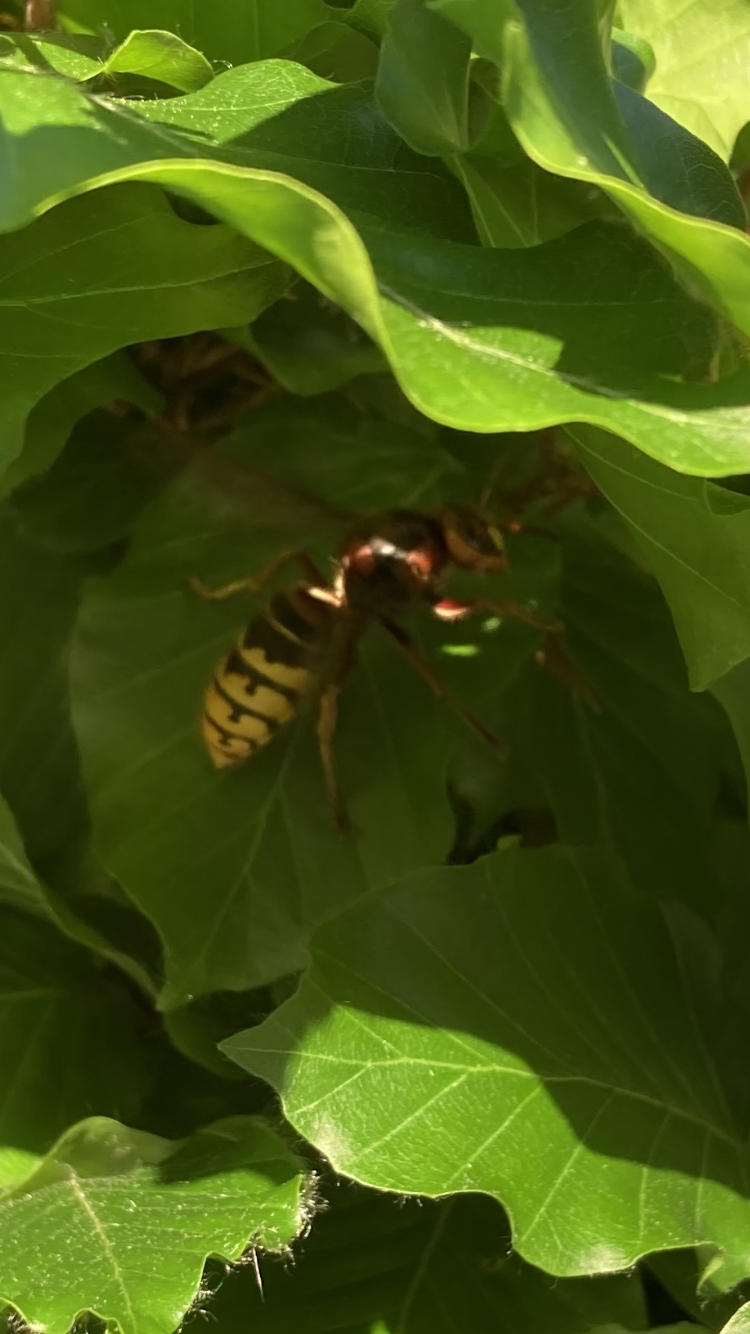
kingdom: Animalia
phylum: Arthropoda
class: Insecta
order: Hymenoptera
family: Vespidae
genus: Vespa
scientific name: Vespa crabro
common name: Hornet
